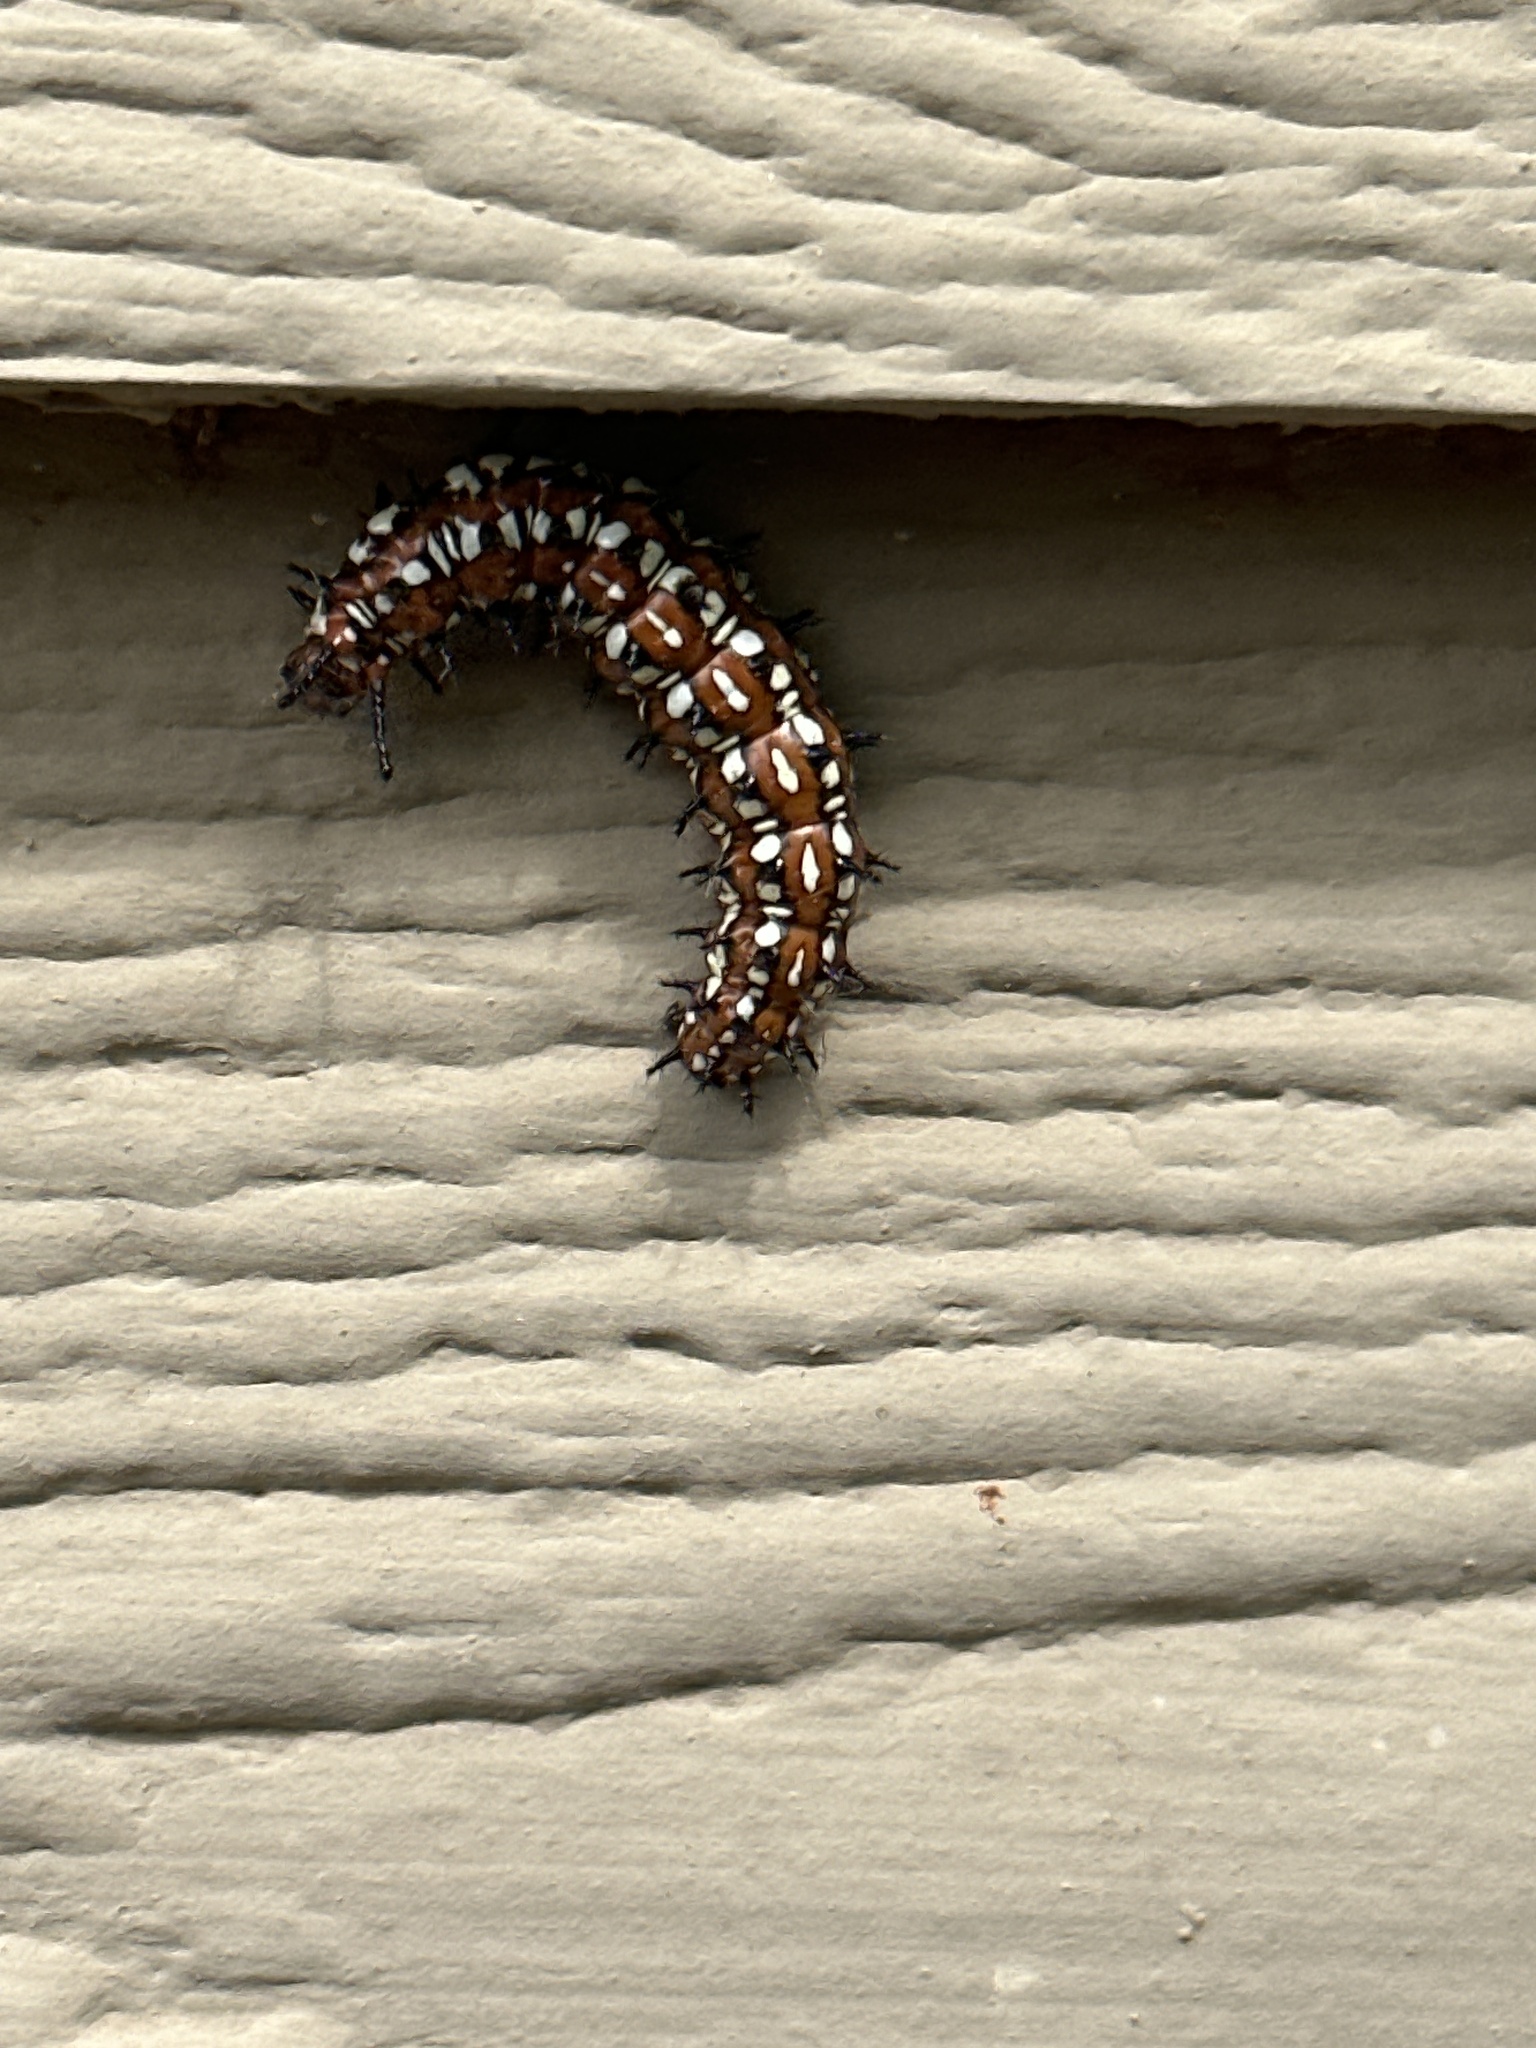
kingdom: Animalia
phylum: Arthropoda
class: Insecta
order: Lepidoptera
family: Nymphalidae
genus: Euptoieta
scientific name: Euptoieta claudia
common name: Variegated fritillary
